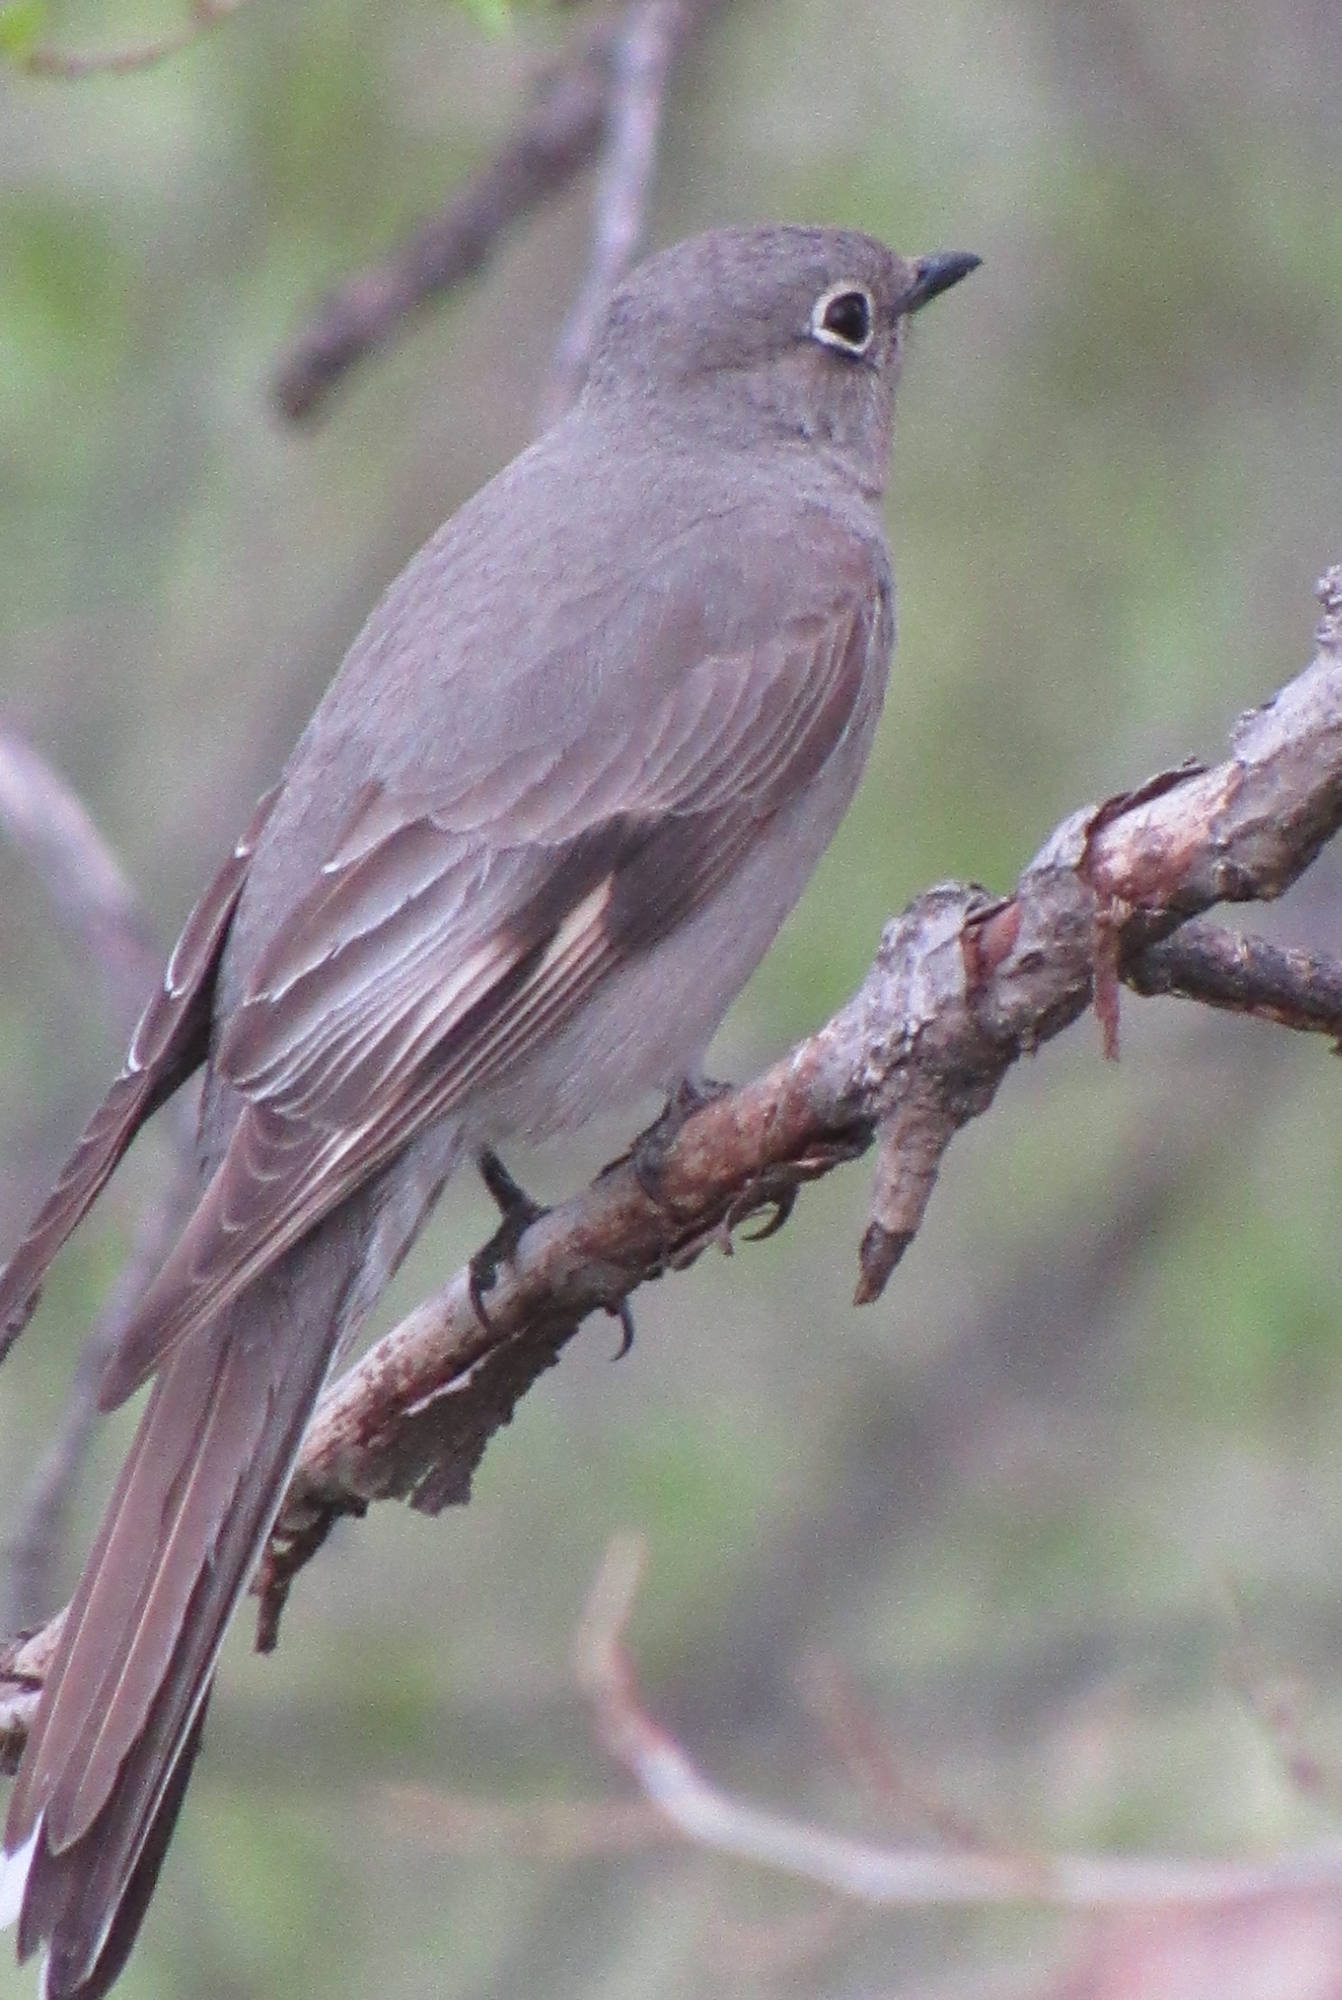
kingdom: Animalia
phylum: Chordata
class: Aves
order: Passeriformes
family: Turdidae
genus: Myadestes
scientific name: Myadestes townsendi
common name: Townsend's solitaire
